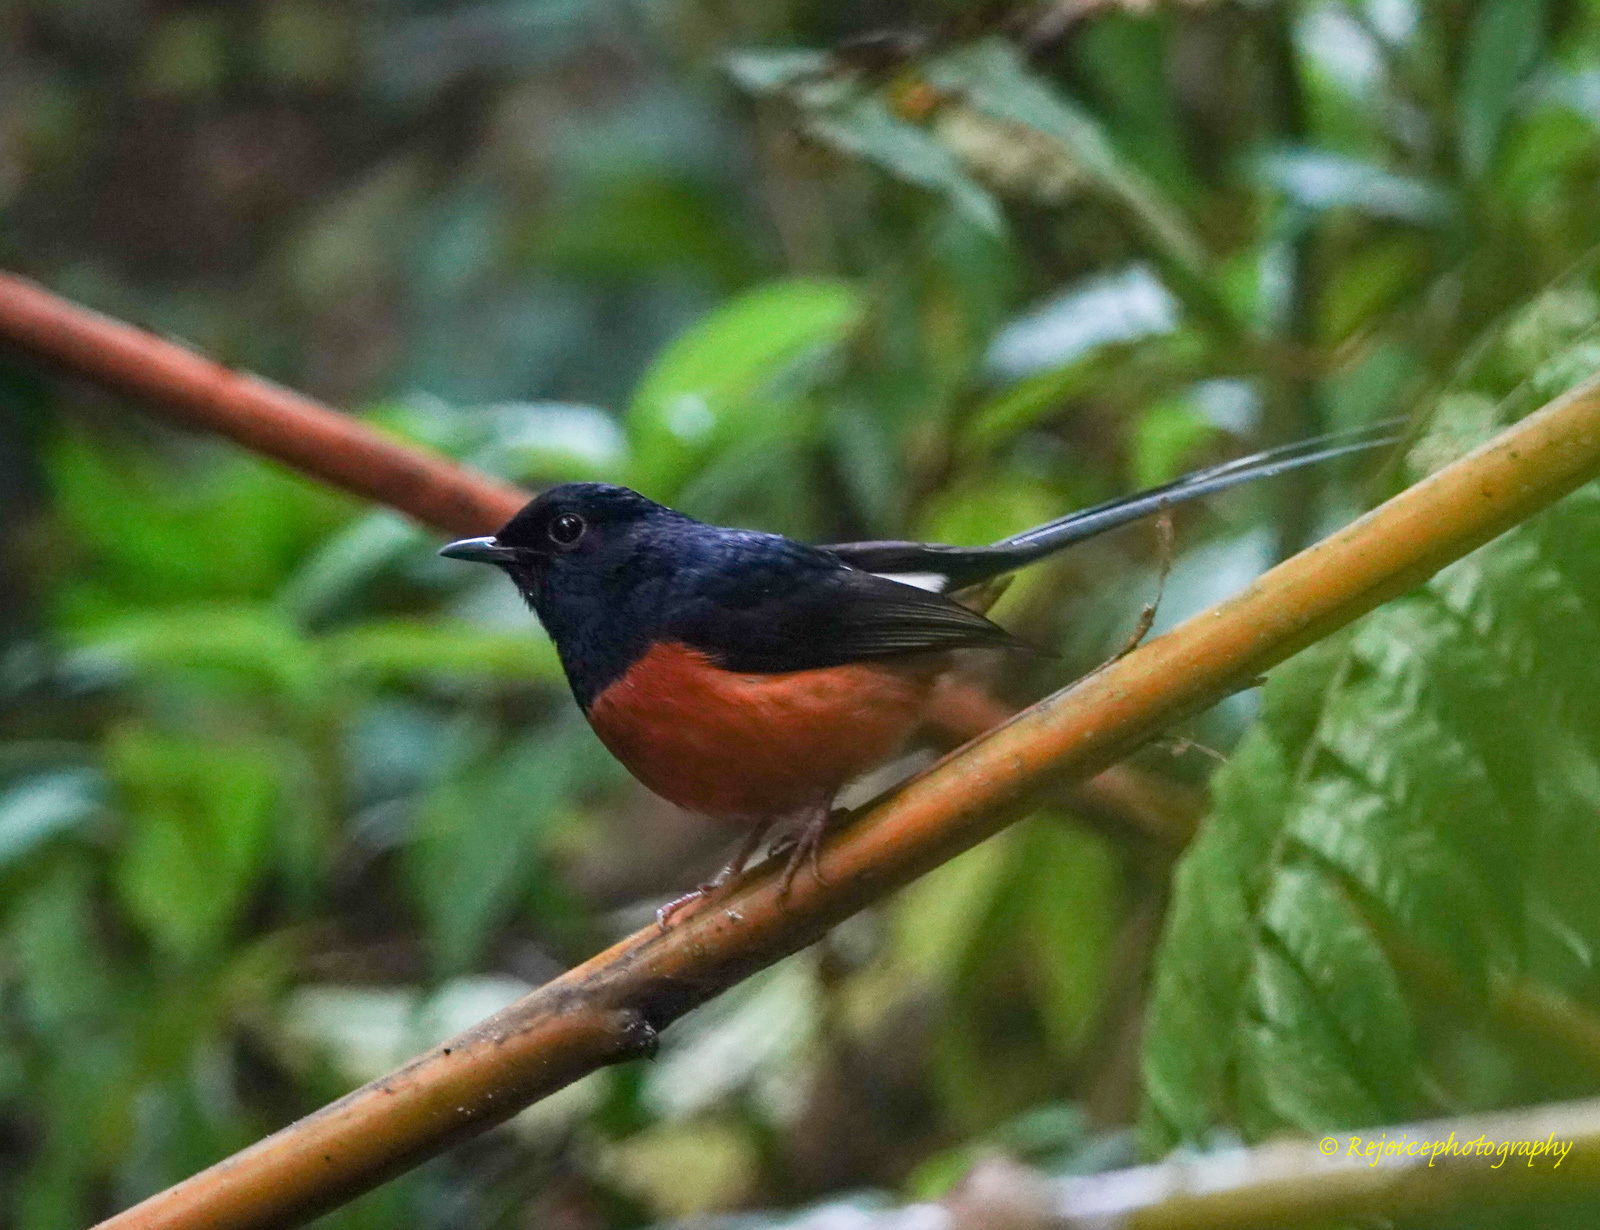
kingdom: Animalia
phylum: Chordata
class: Aves
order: Passeriformes
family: Muscicapidae
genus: Copsychus
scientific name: Copsychus malabaricus
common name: White-rumped shama
